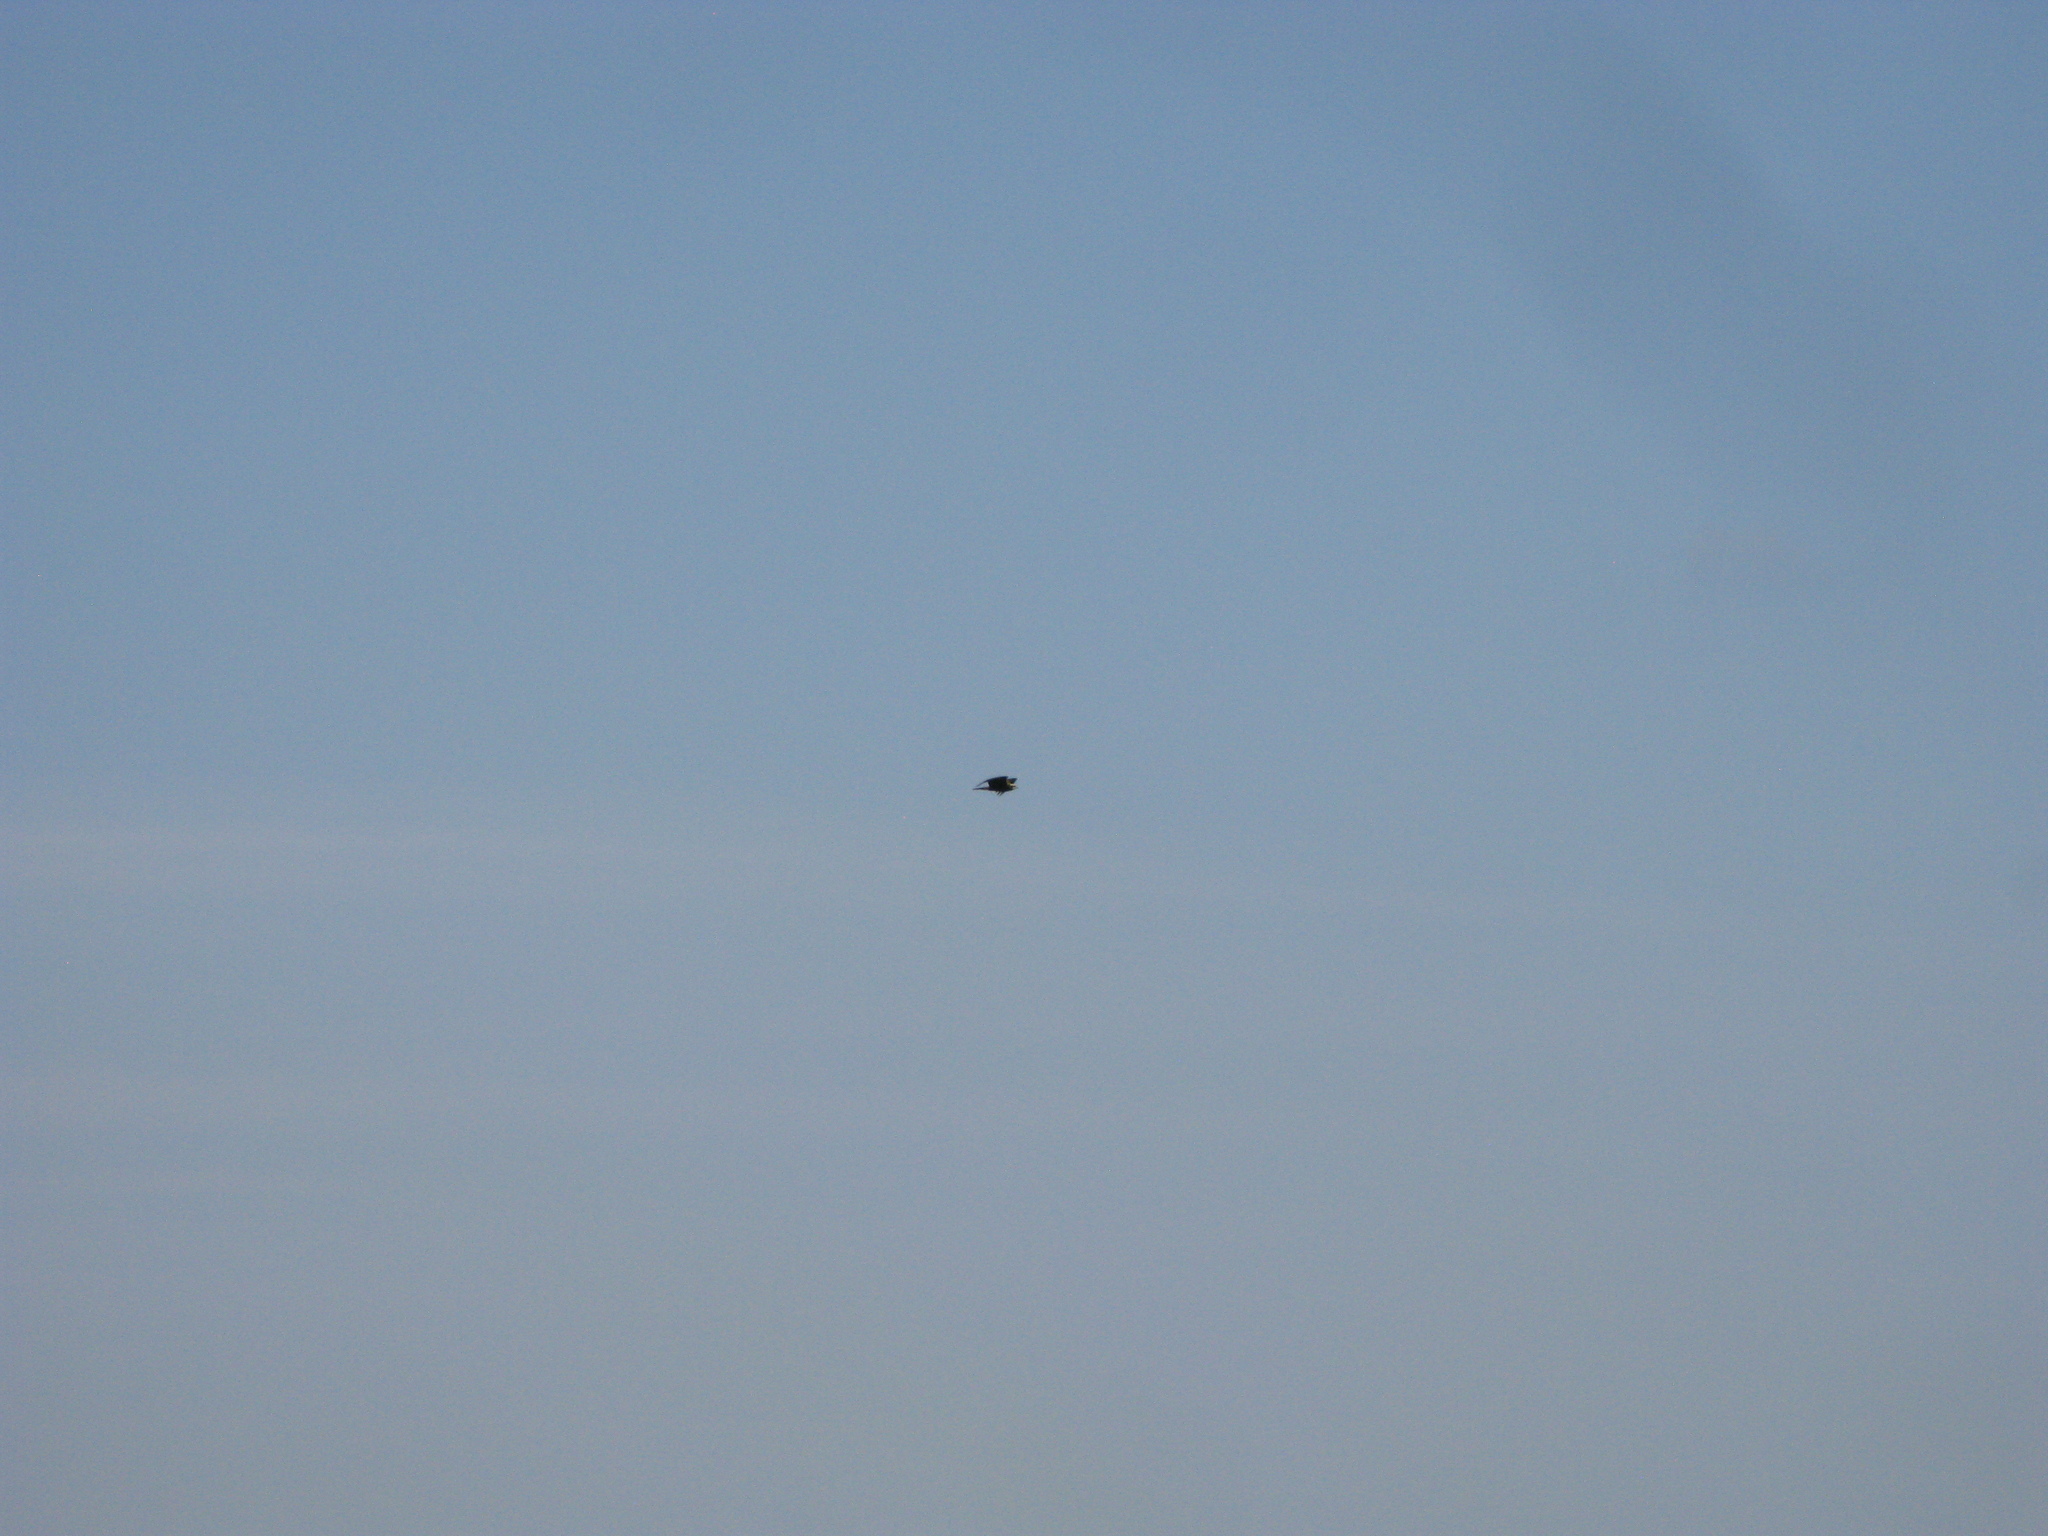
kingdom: Animalia
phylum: Chordata
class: Aves
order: Accipitriformes
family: Accipitridae
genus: Circus
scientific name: Circus aeruginosus
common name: Western marsh harrier
